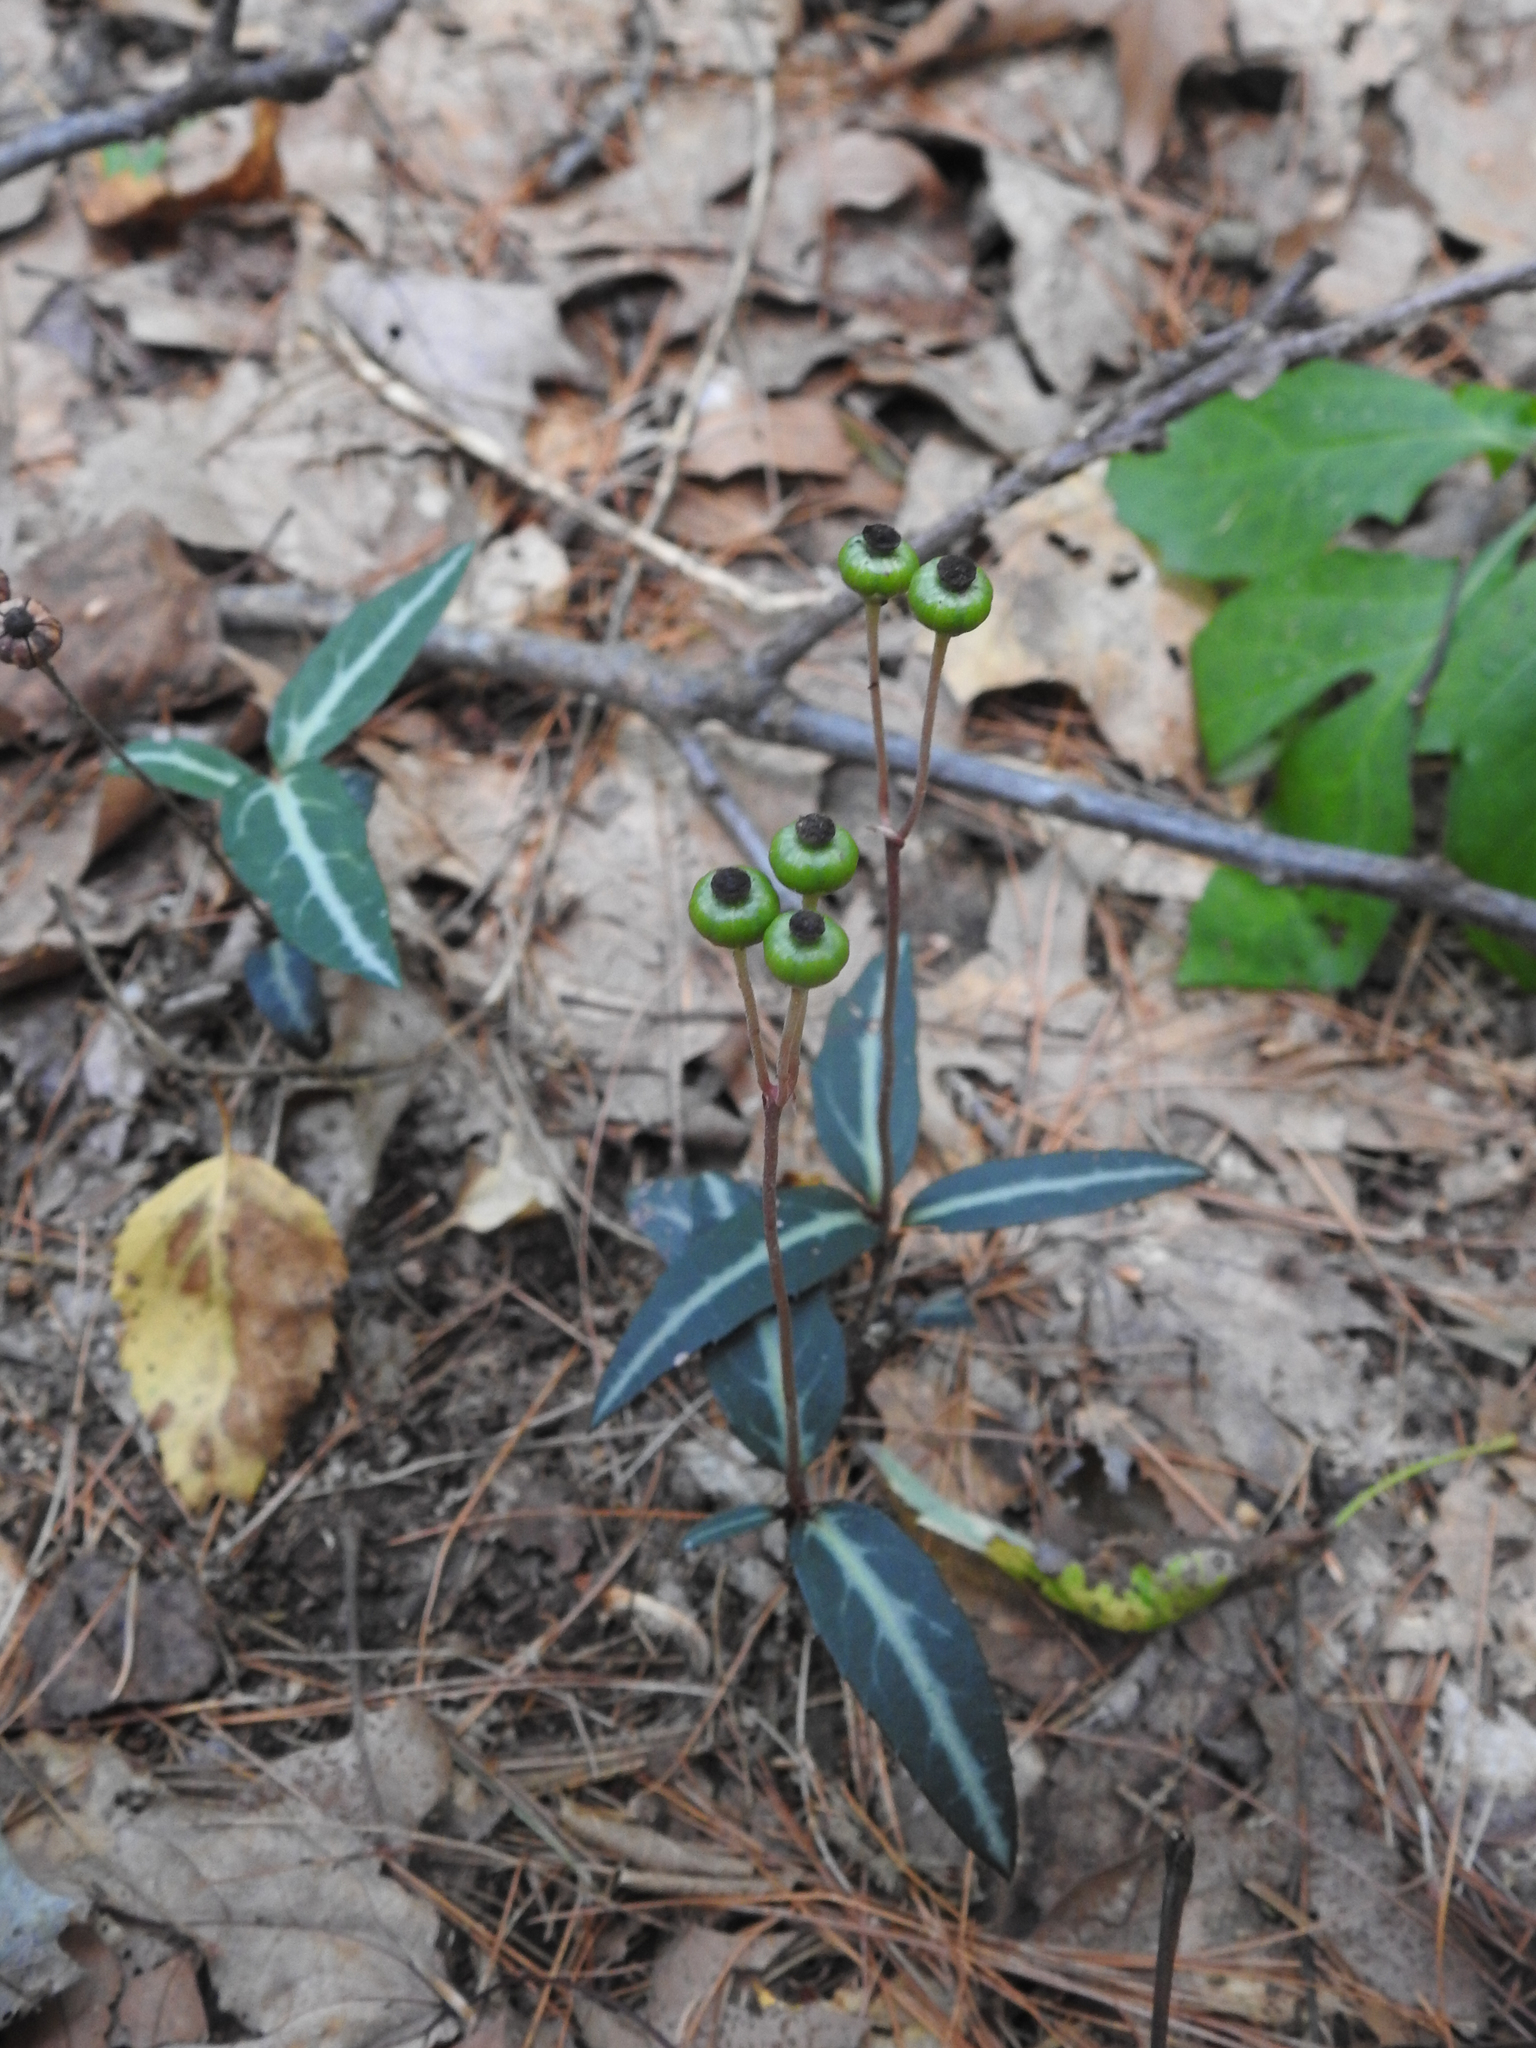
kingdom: Plantae
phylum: Tracheophyta
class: Magnoliopsida
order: Ericales
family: Ericaceae
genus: Chimaphila
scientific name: Chimaphila maculata
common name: Spotted pipsissewa
